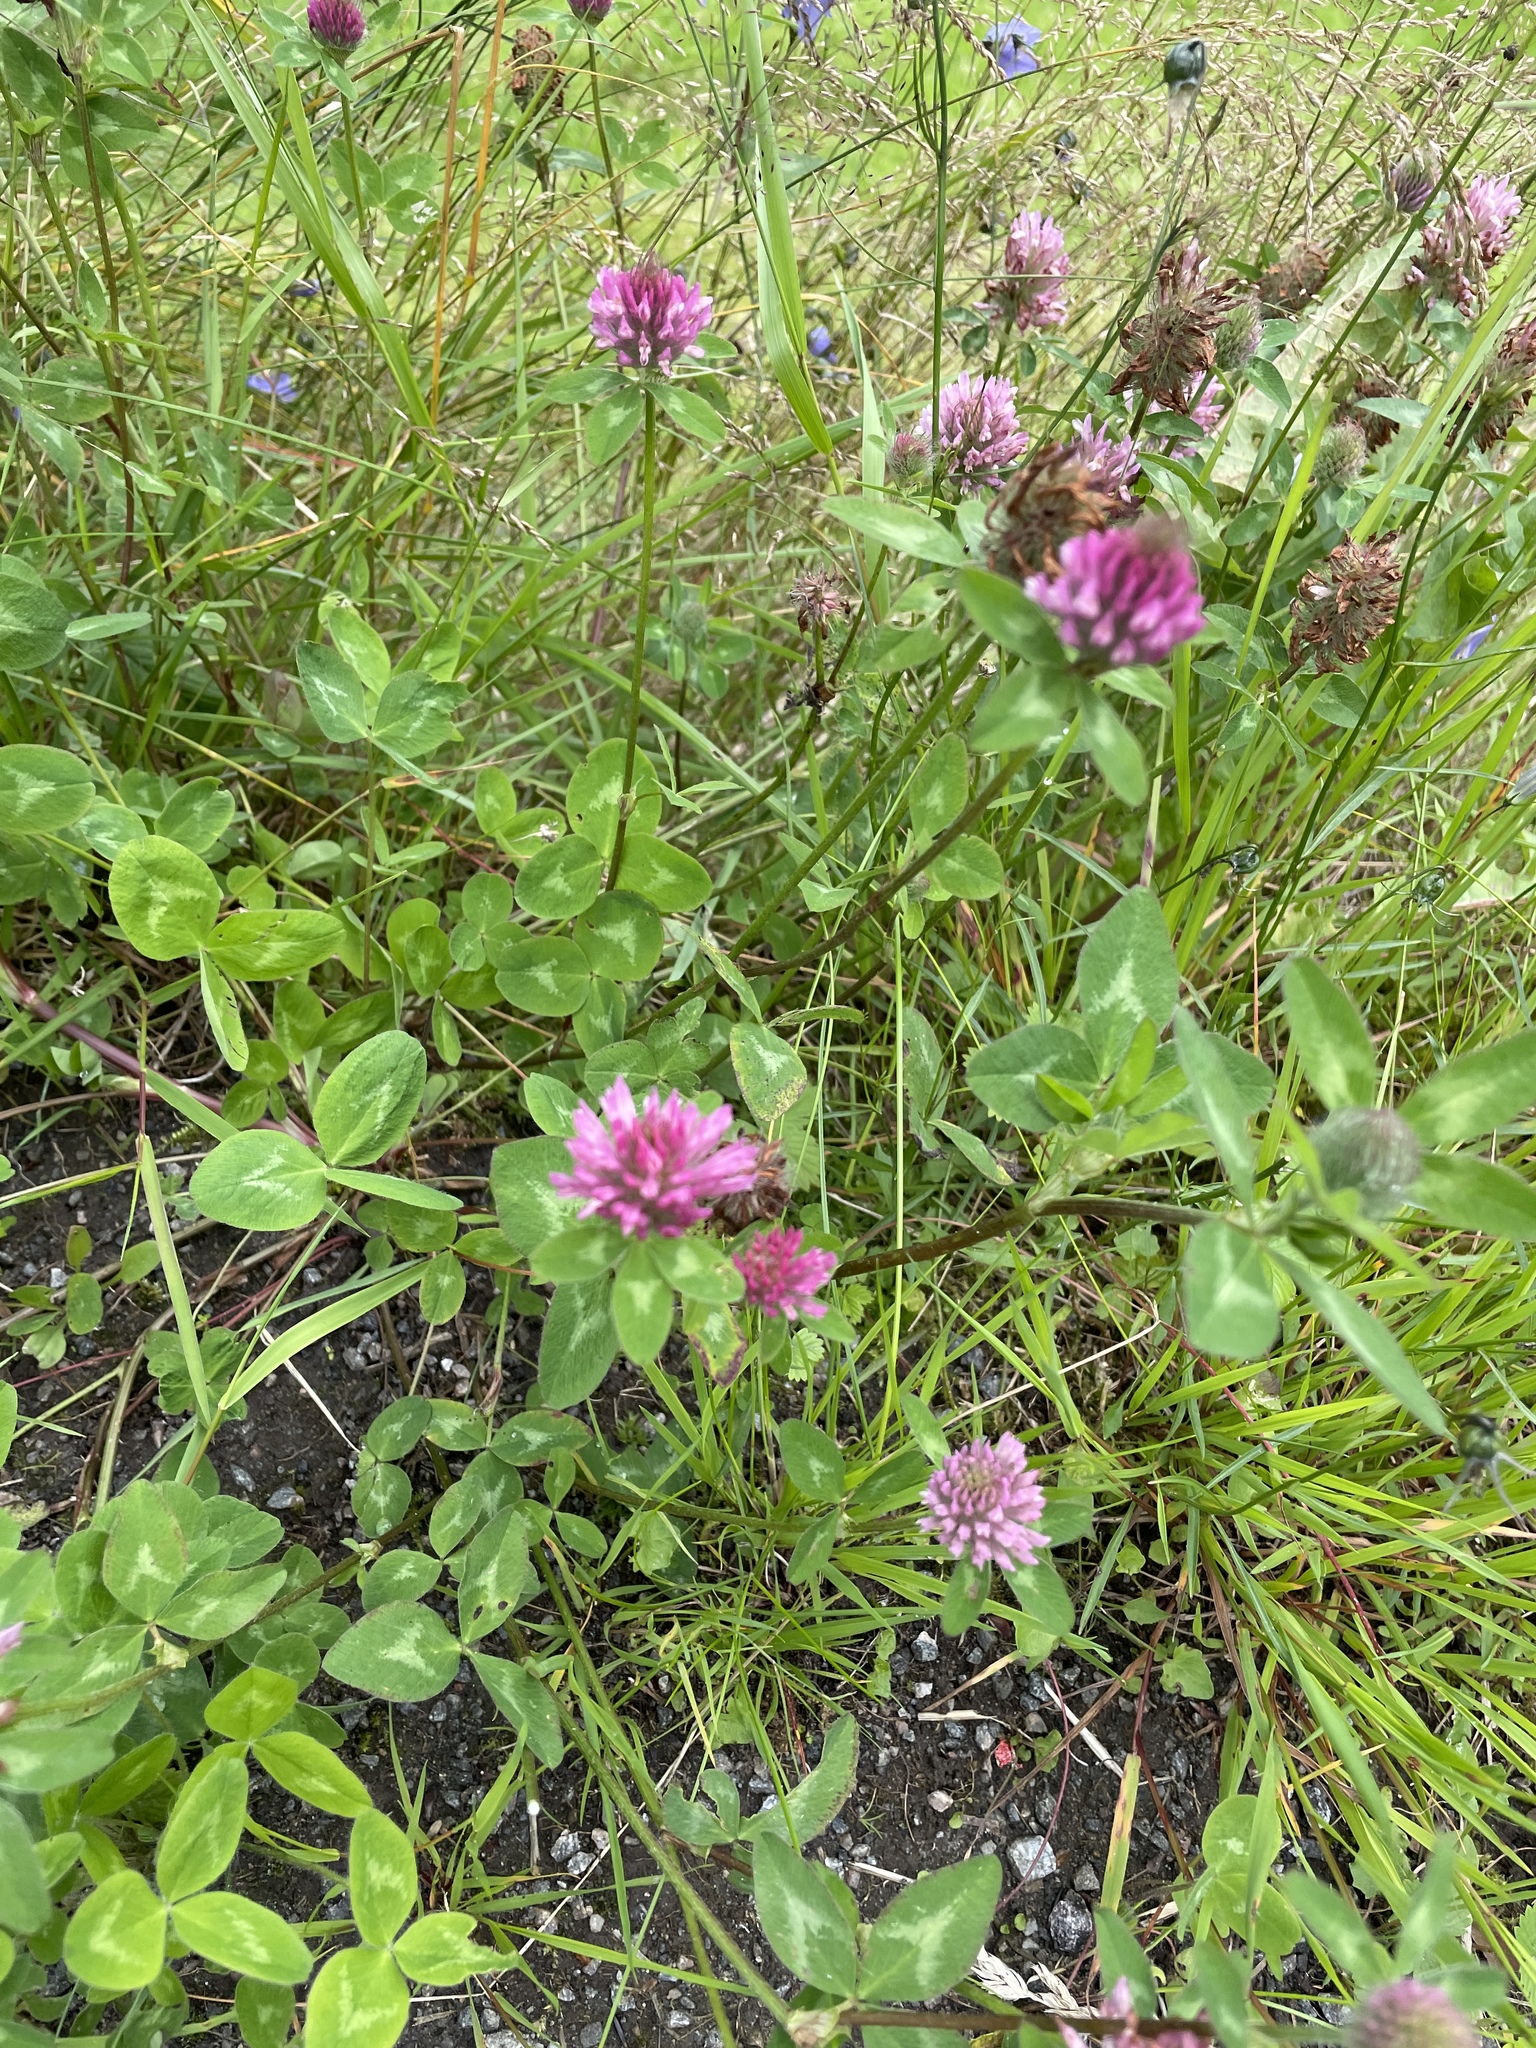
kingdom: Plantae
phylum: Tracheophyta
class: Magnoliopsida
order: Fabales
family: Fabaceae
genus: Trifolium
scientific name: Trifolium pratense
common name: Red clover
